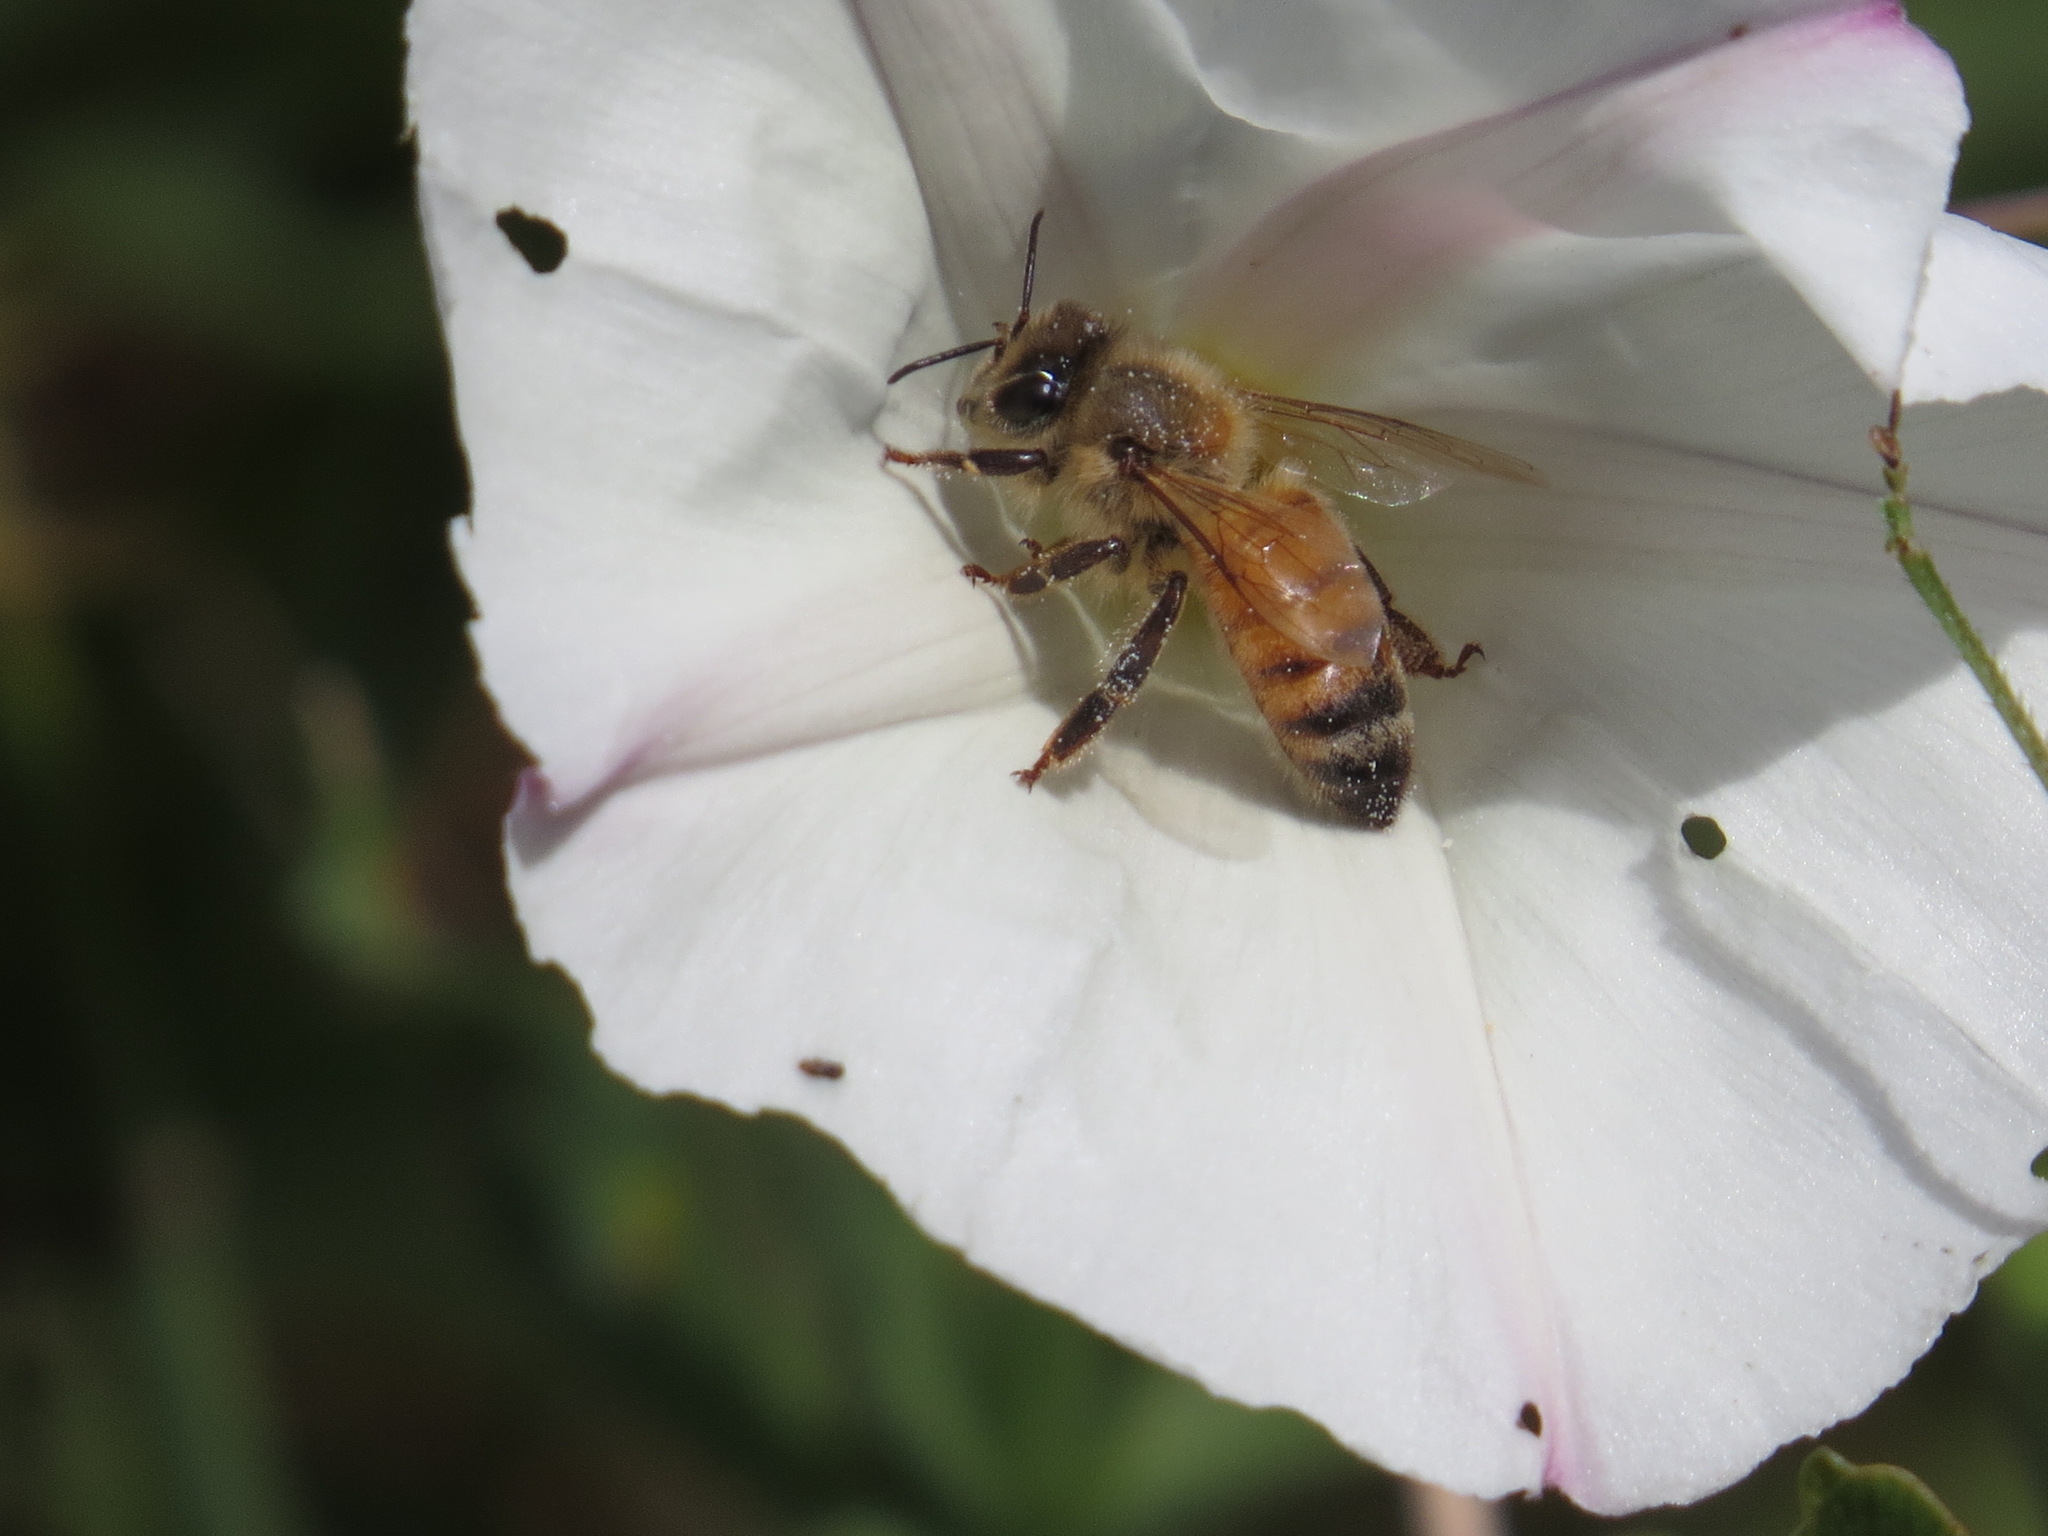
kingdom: Animalia
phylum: Arthropoda
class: Insecta
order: Hymenoptera
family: Apidae
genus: Apis
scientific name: Apis mellifera
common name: Honey bee
